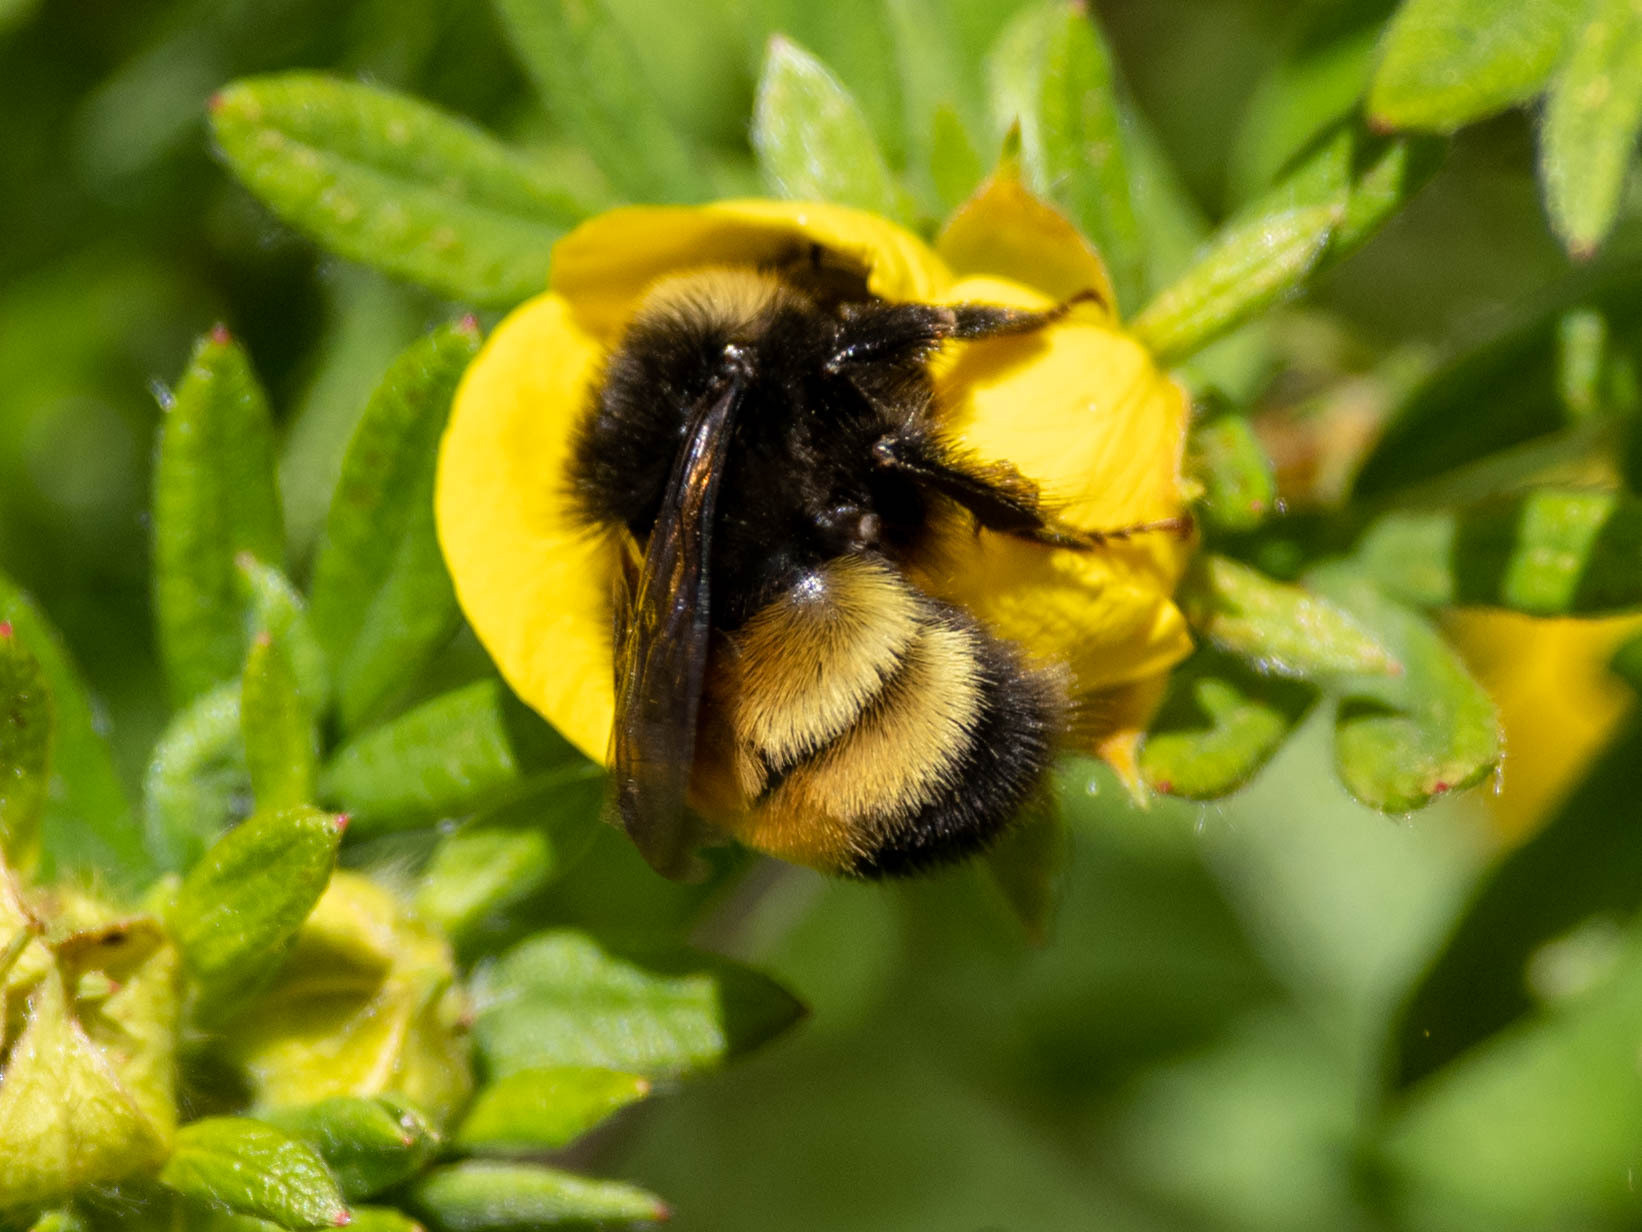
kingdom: Animalia
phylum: Arthropoda
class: Insecta
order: Hymenoptera
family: Apidae
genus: Bombus
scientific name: Bombus terricola
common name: Yellow-banded bumble bee
